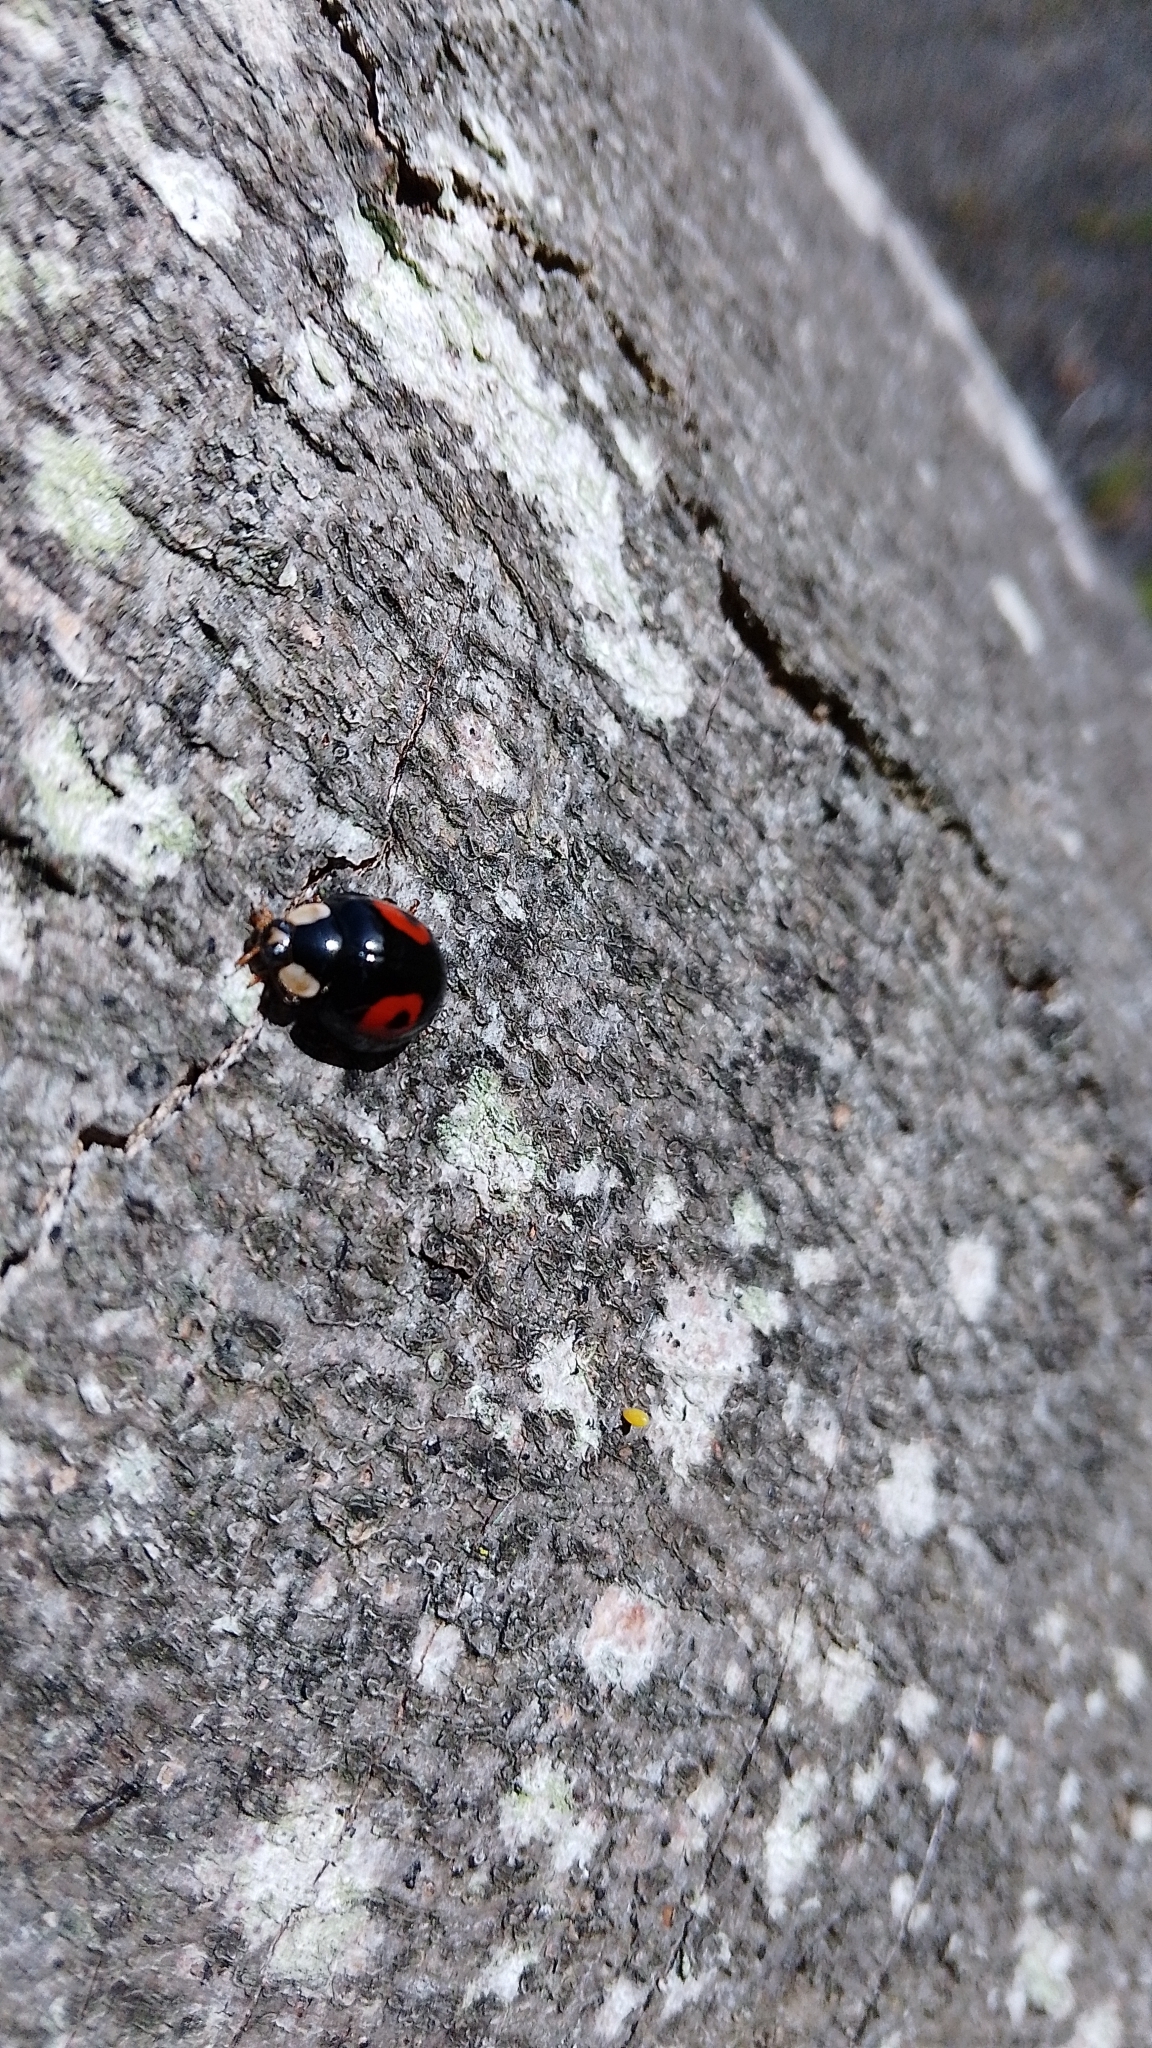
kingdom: Animalia
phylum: Arthropoda
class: Insecta
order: Coleoptera
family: Coccinellidae
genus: Harmonia
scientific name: Harmonia axyridis
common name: Harlequin ladybird
